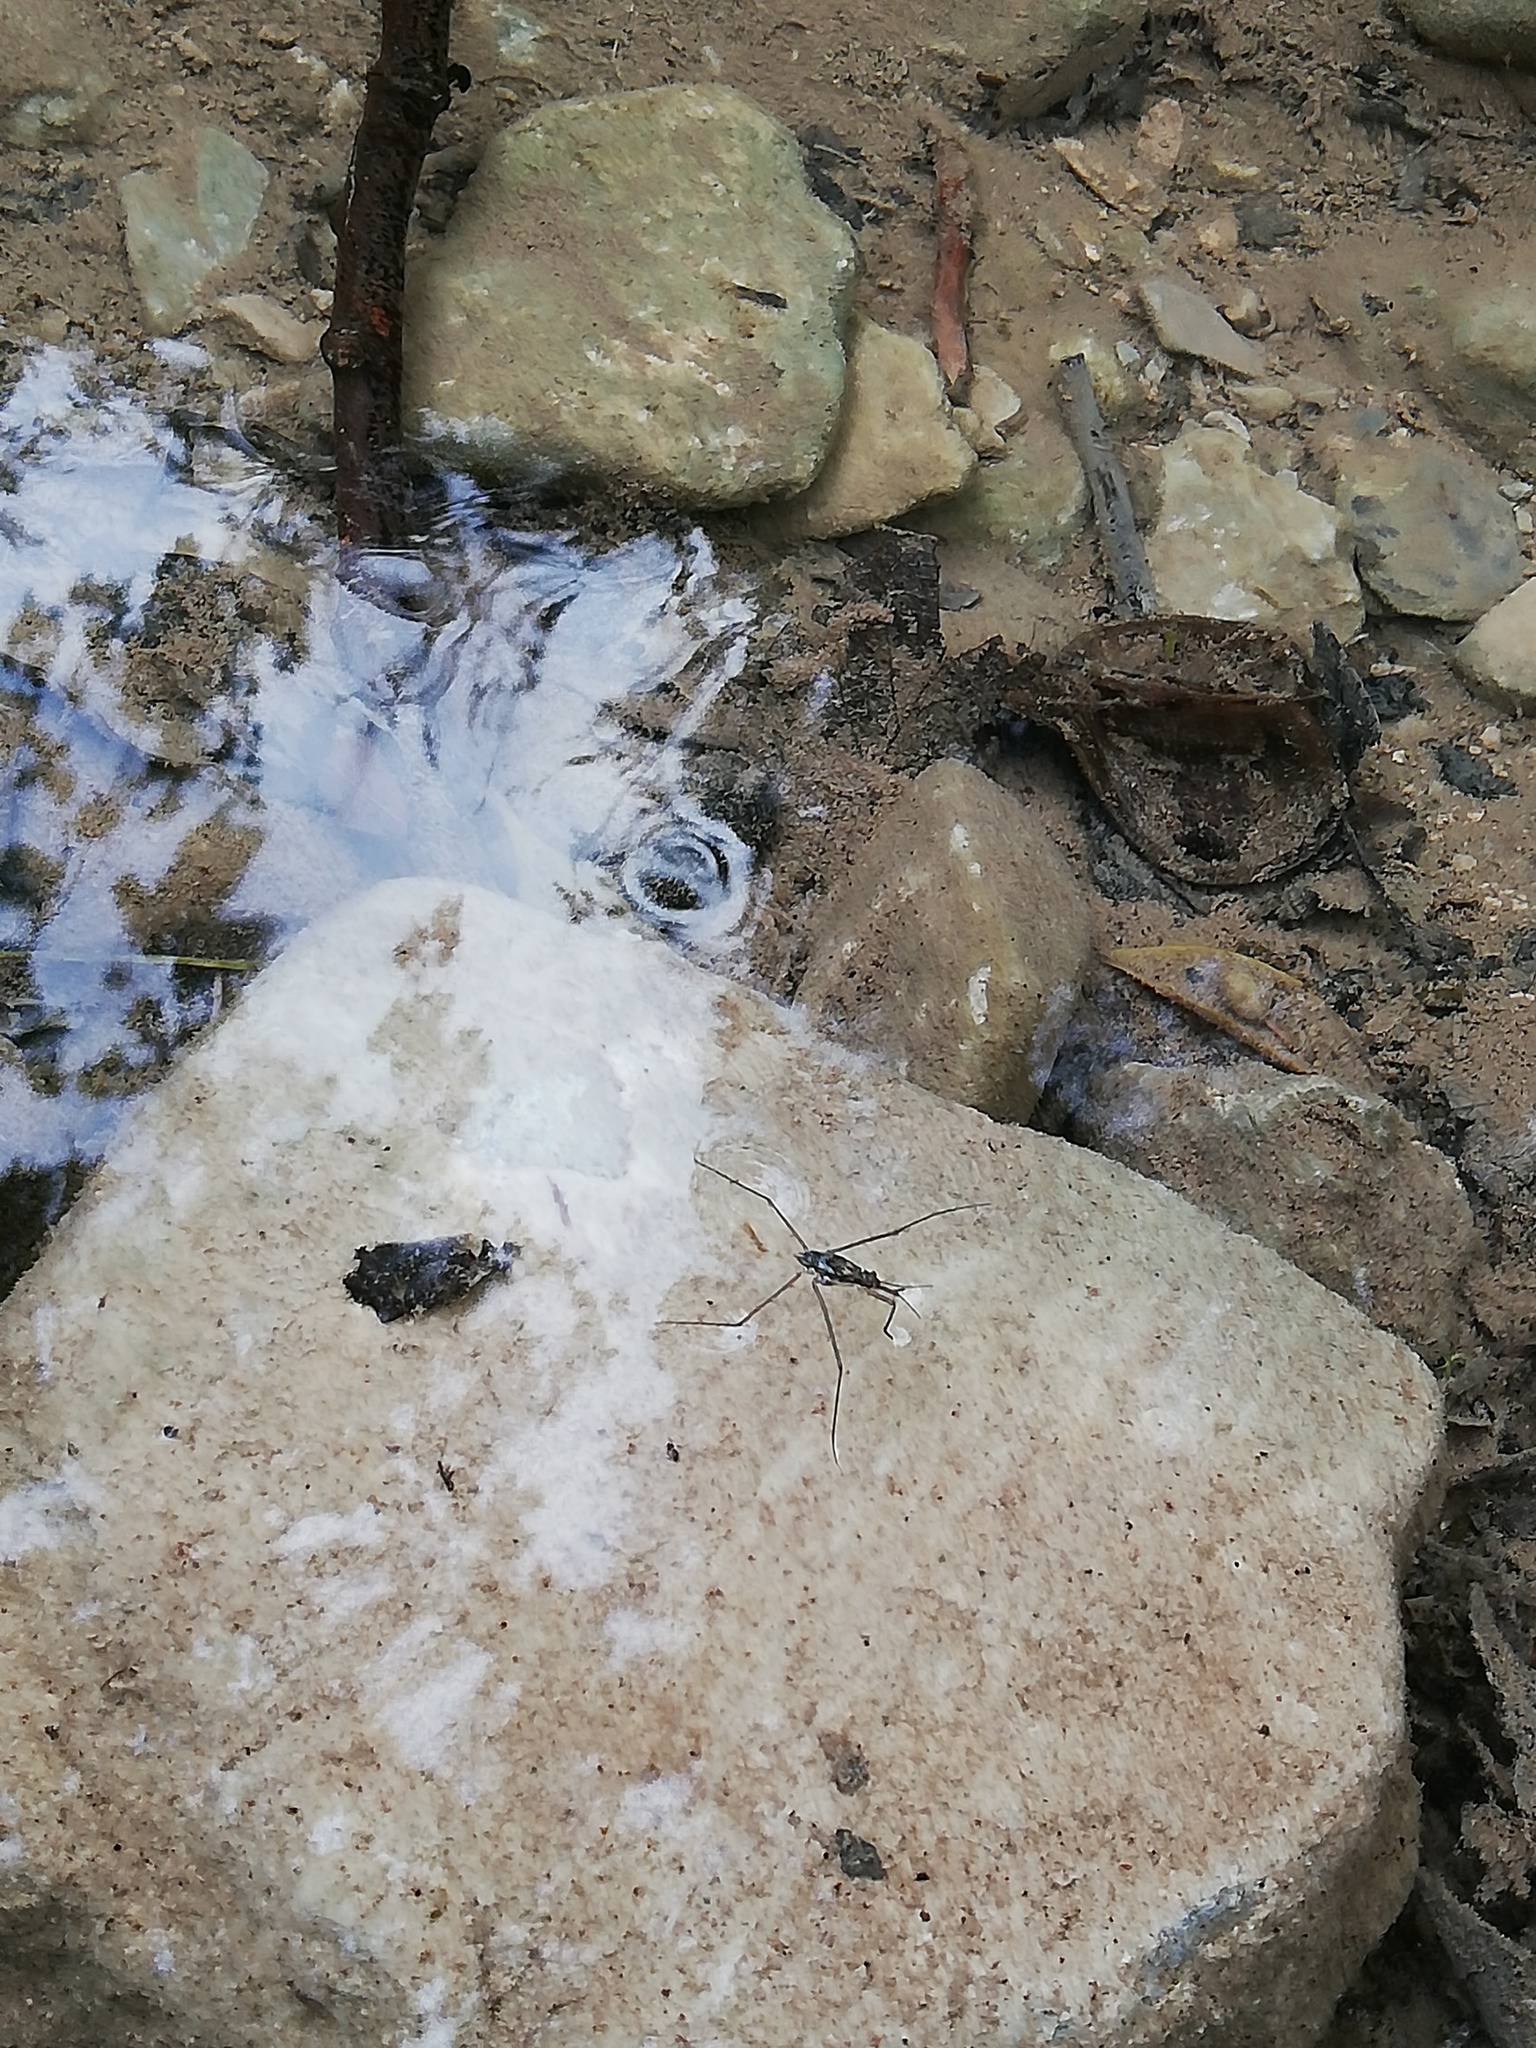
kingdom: Animalia
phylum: Arthropoda
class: Insecta
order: Hemiptera
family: Gerridae
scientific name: Gerridae
